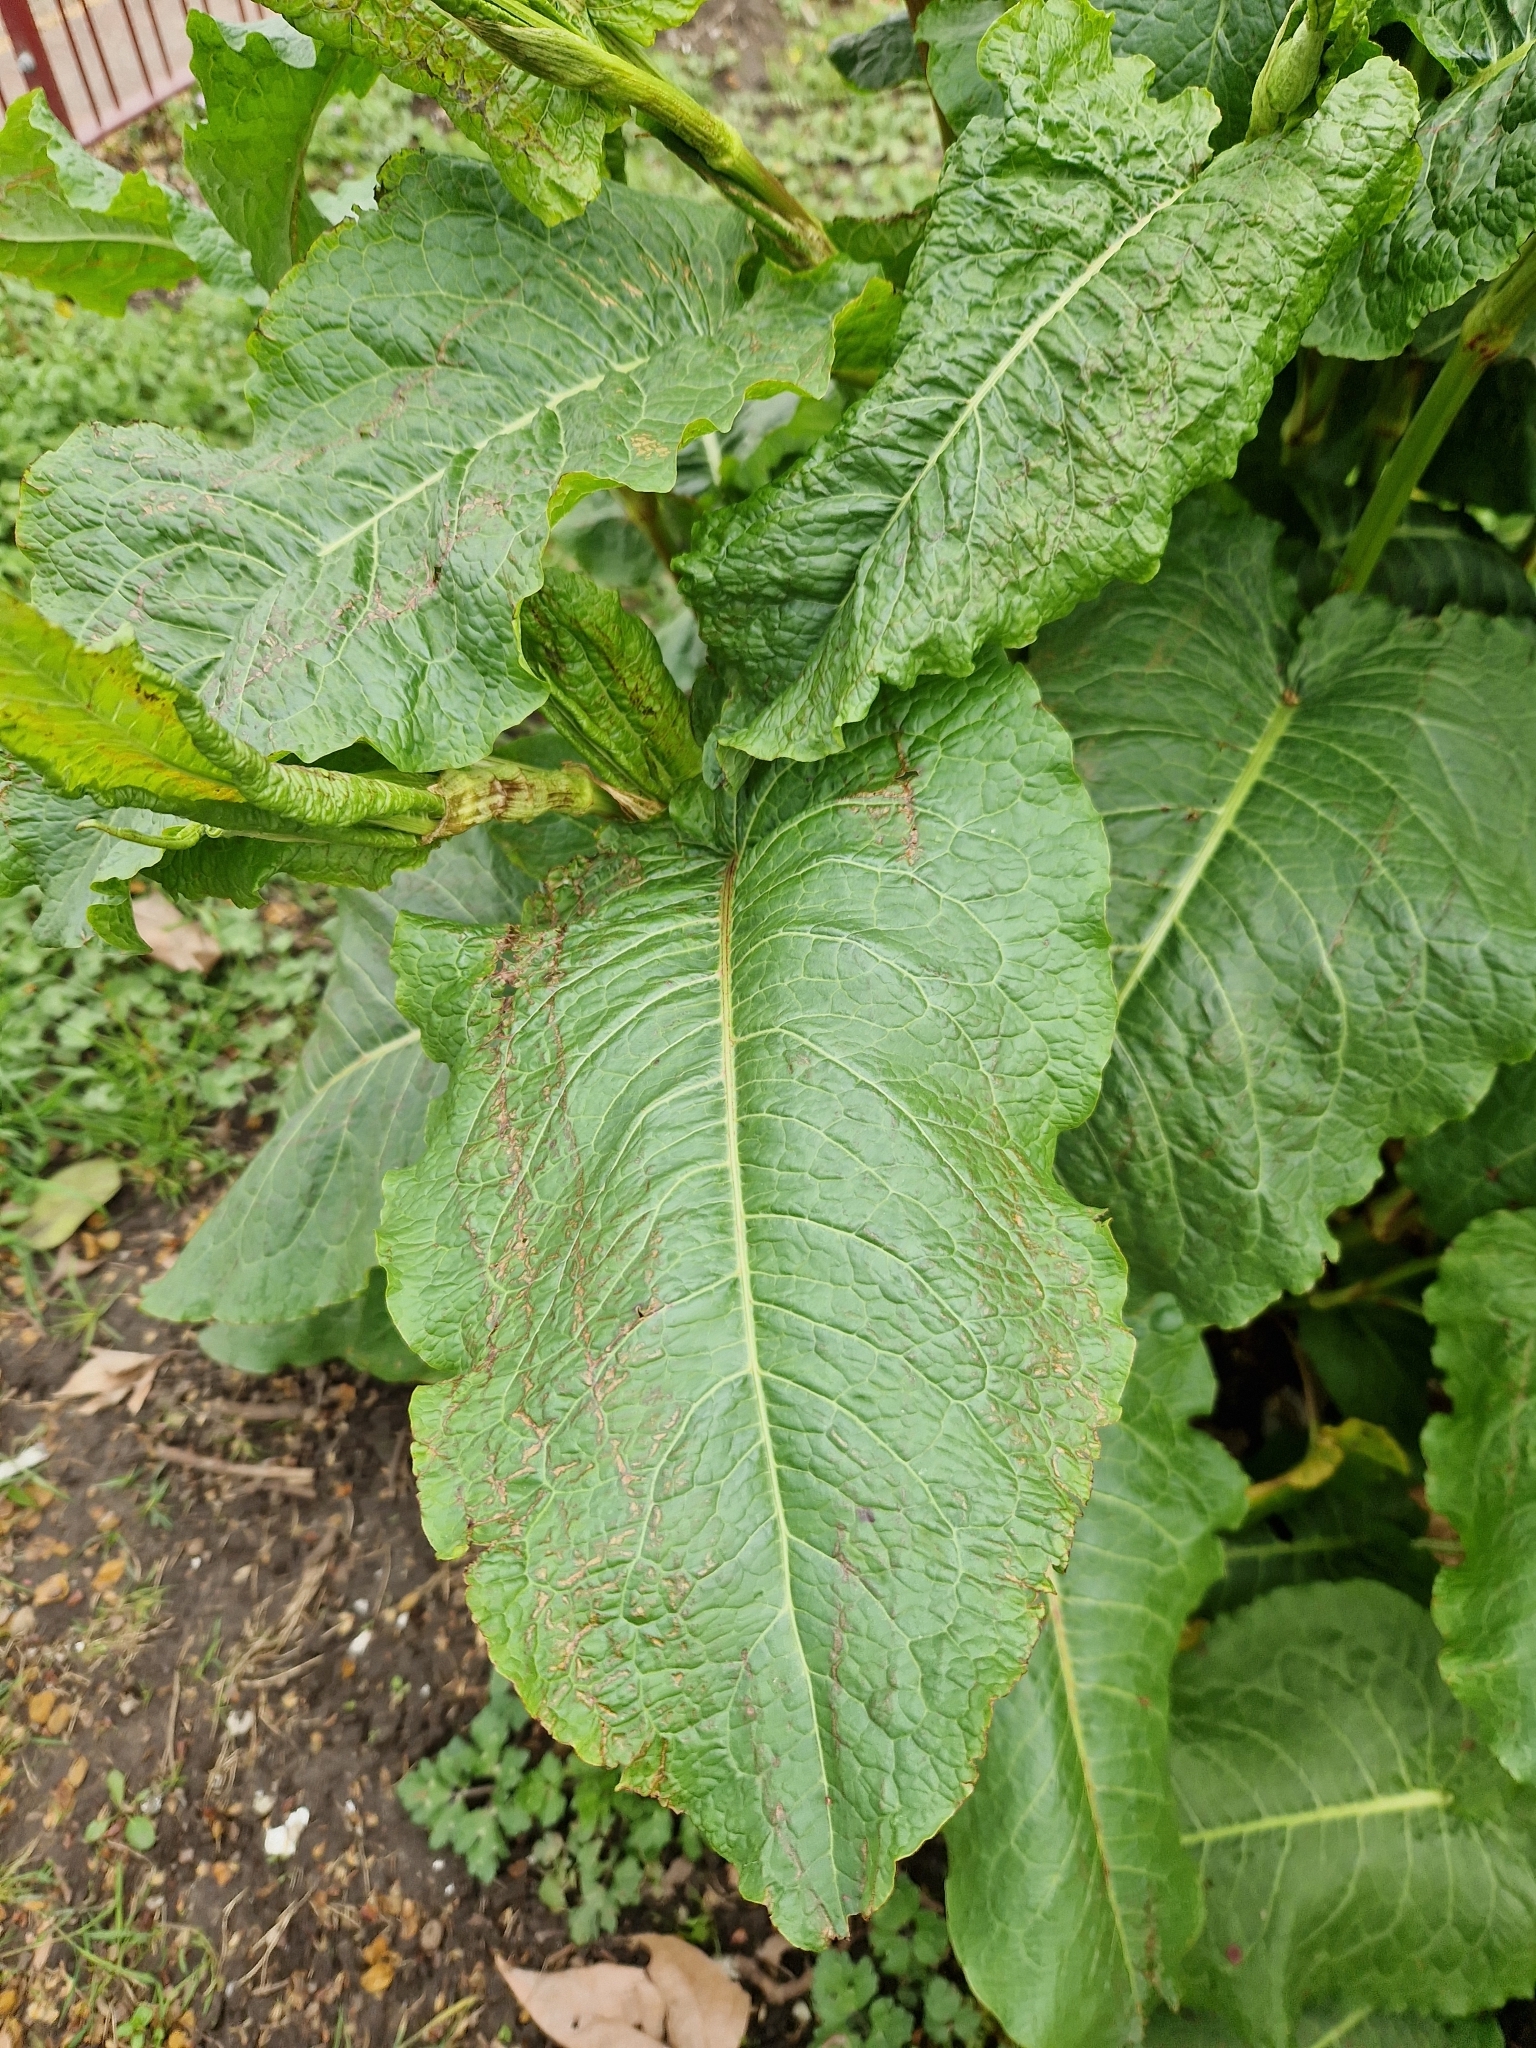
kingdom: Plantae
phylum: Tracheophyta
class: Magnoliopsida
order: Caryophyllales
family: Polygonaceae
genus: Rumex
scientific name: Rumex obtusifolius
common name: Bitter dock
